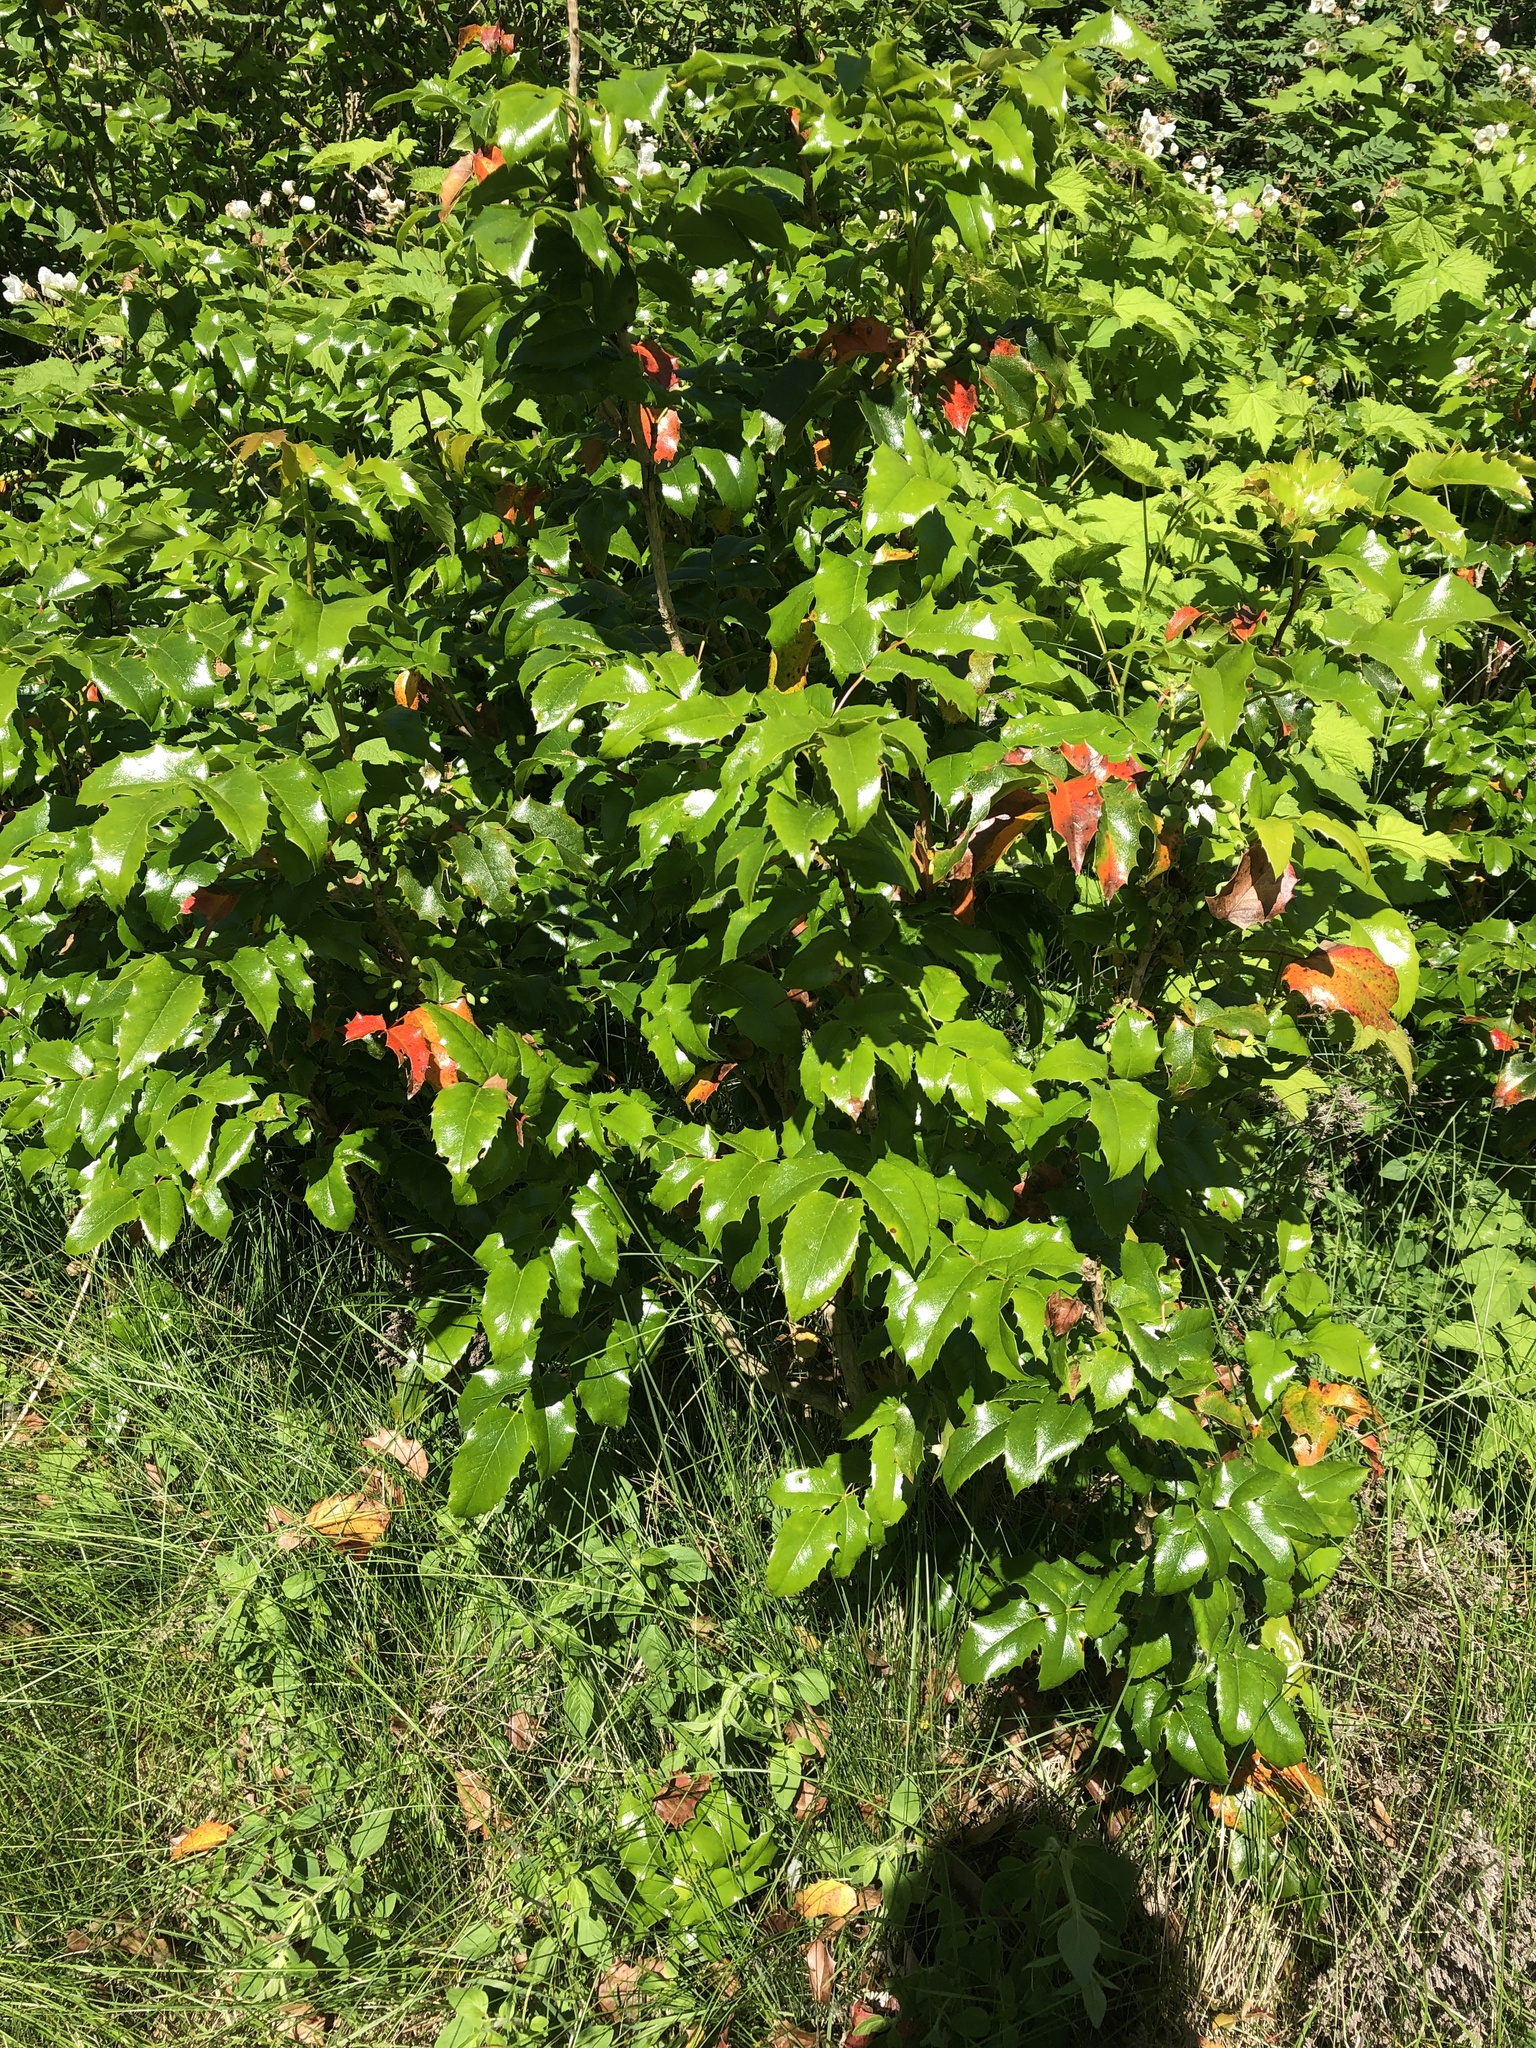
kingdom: Plantae
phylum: Tracheophyta
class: Magnoliopsida
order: Ranunculales
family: Berberidaceae
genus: Mahonia
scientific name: Mahonia aquifolium
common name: Oregon-grape
